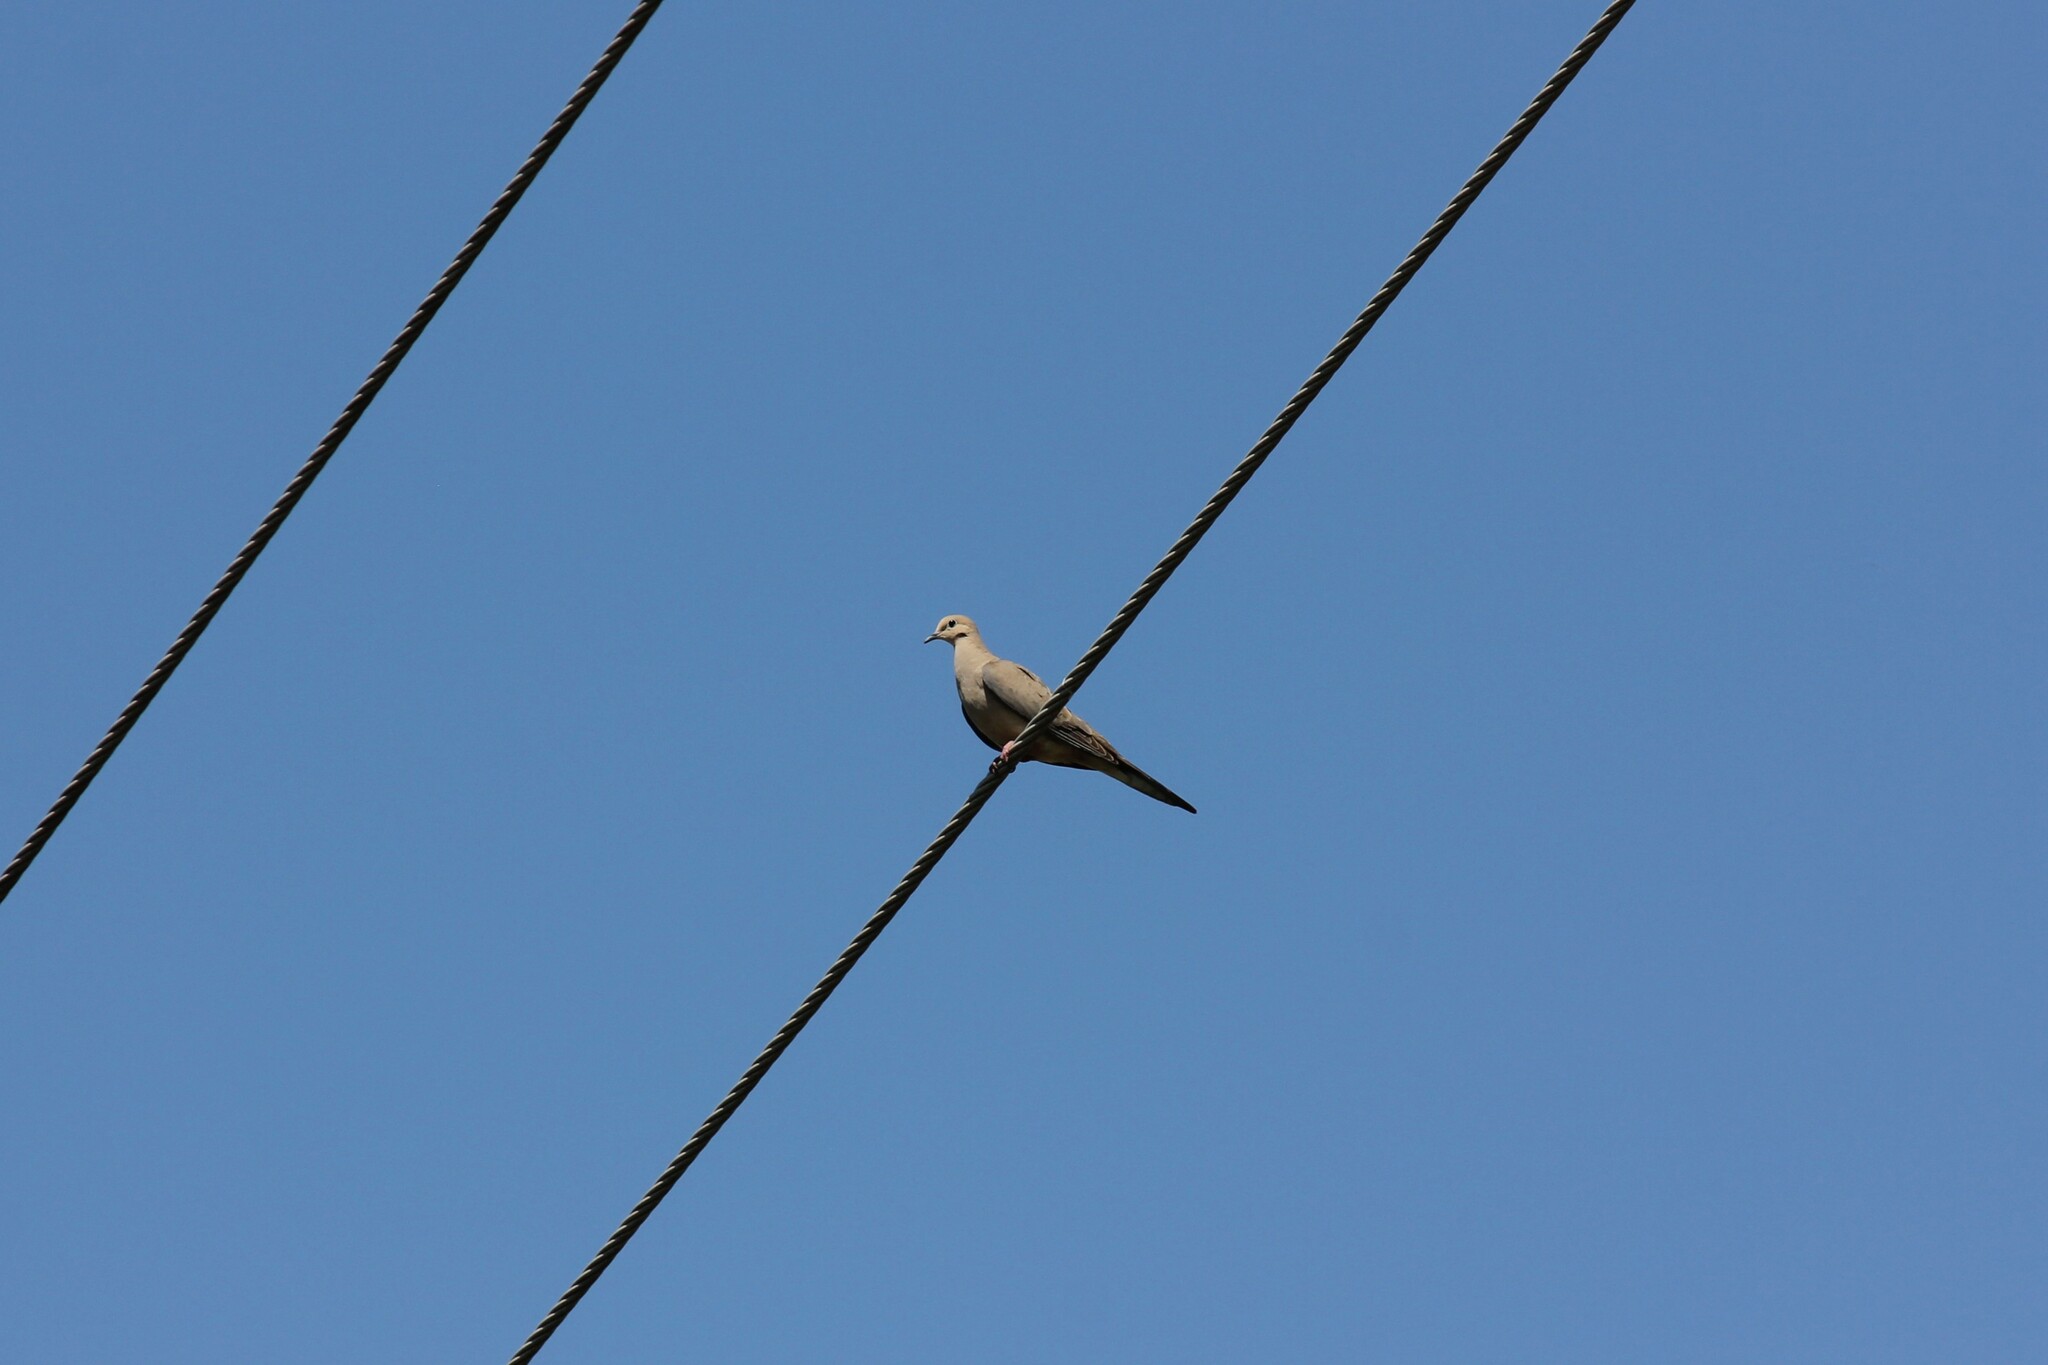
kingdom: Animalia
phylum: Chordata
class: Aves
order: Columbiformes
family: Columbidae
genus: Zenaida
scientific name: Zenaida macroura
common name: Mourning dove
